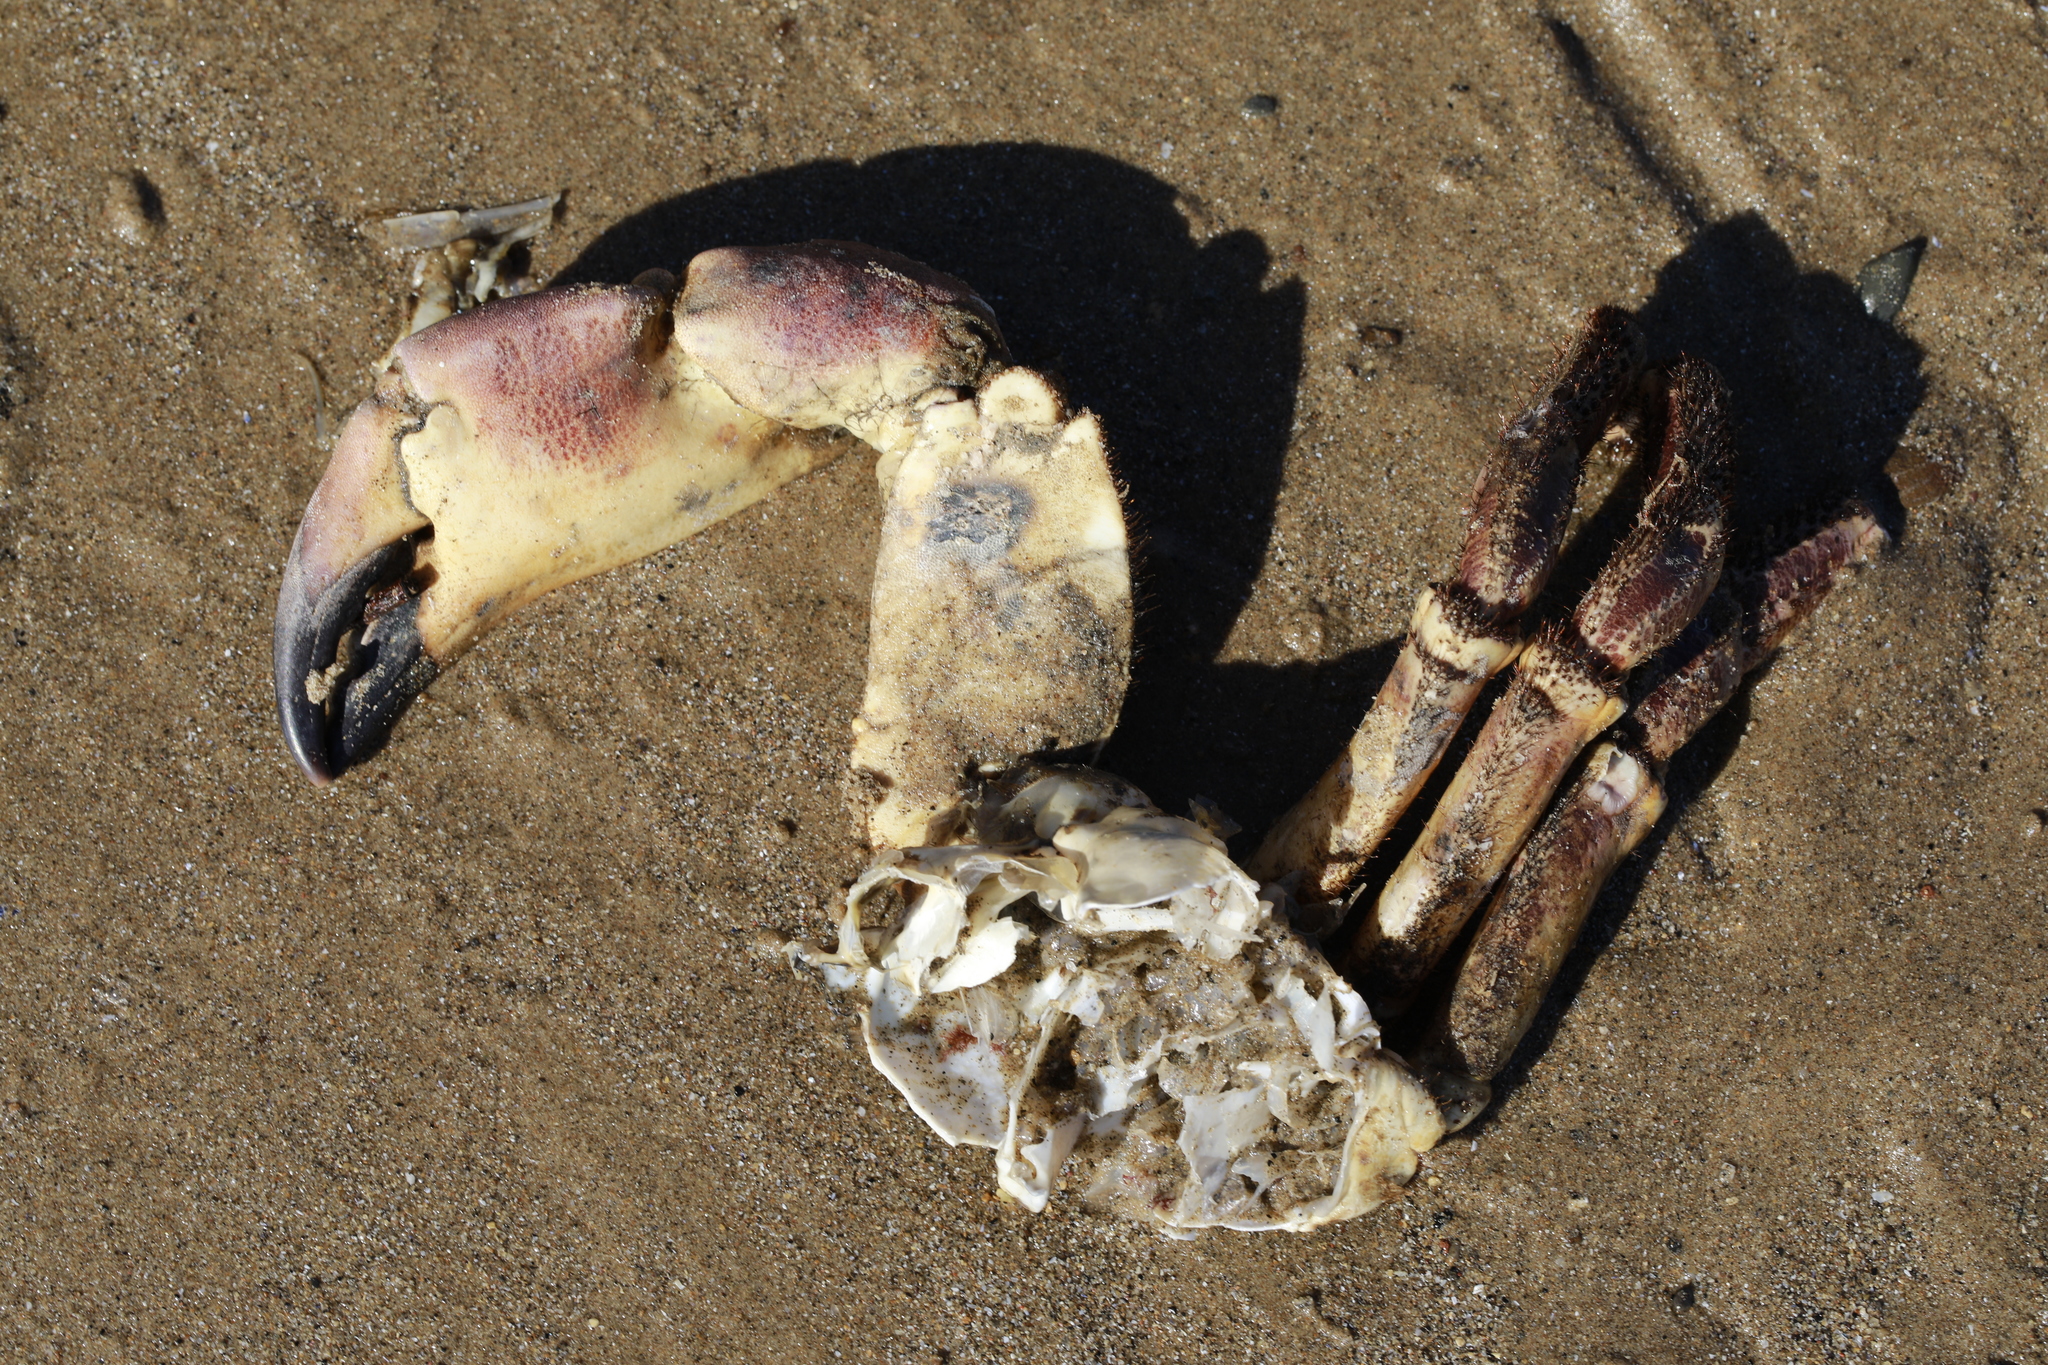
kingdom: Animalia
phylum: Arthropoda
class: Malacostraca
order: Decapoda
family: Cancridae
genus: Cancer
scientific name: Cancer pagurus
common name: Edible crab
